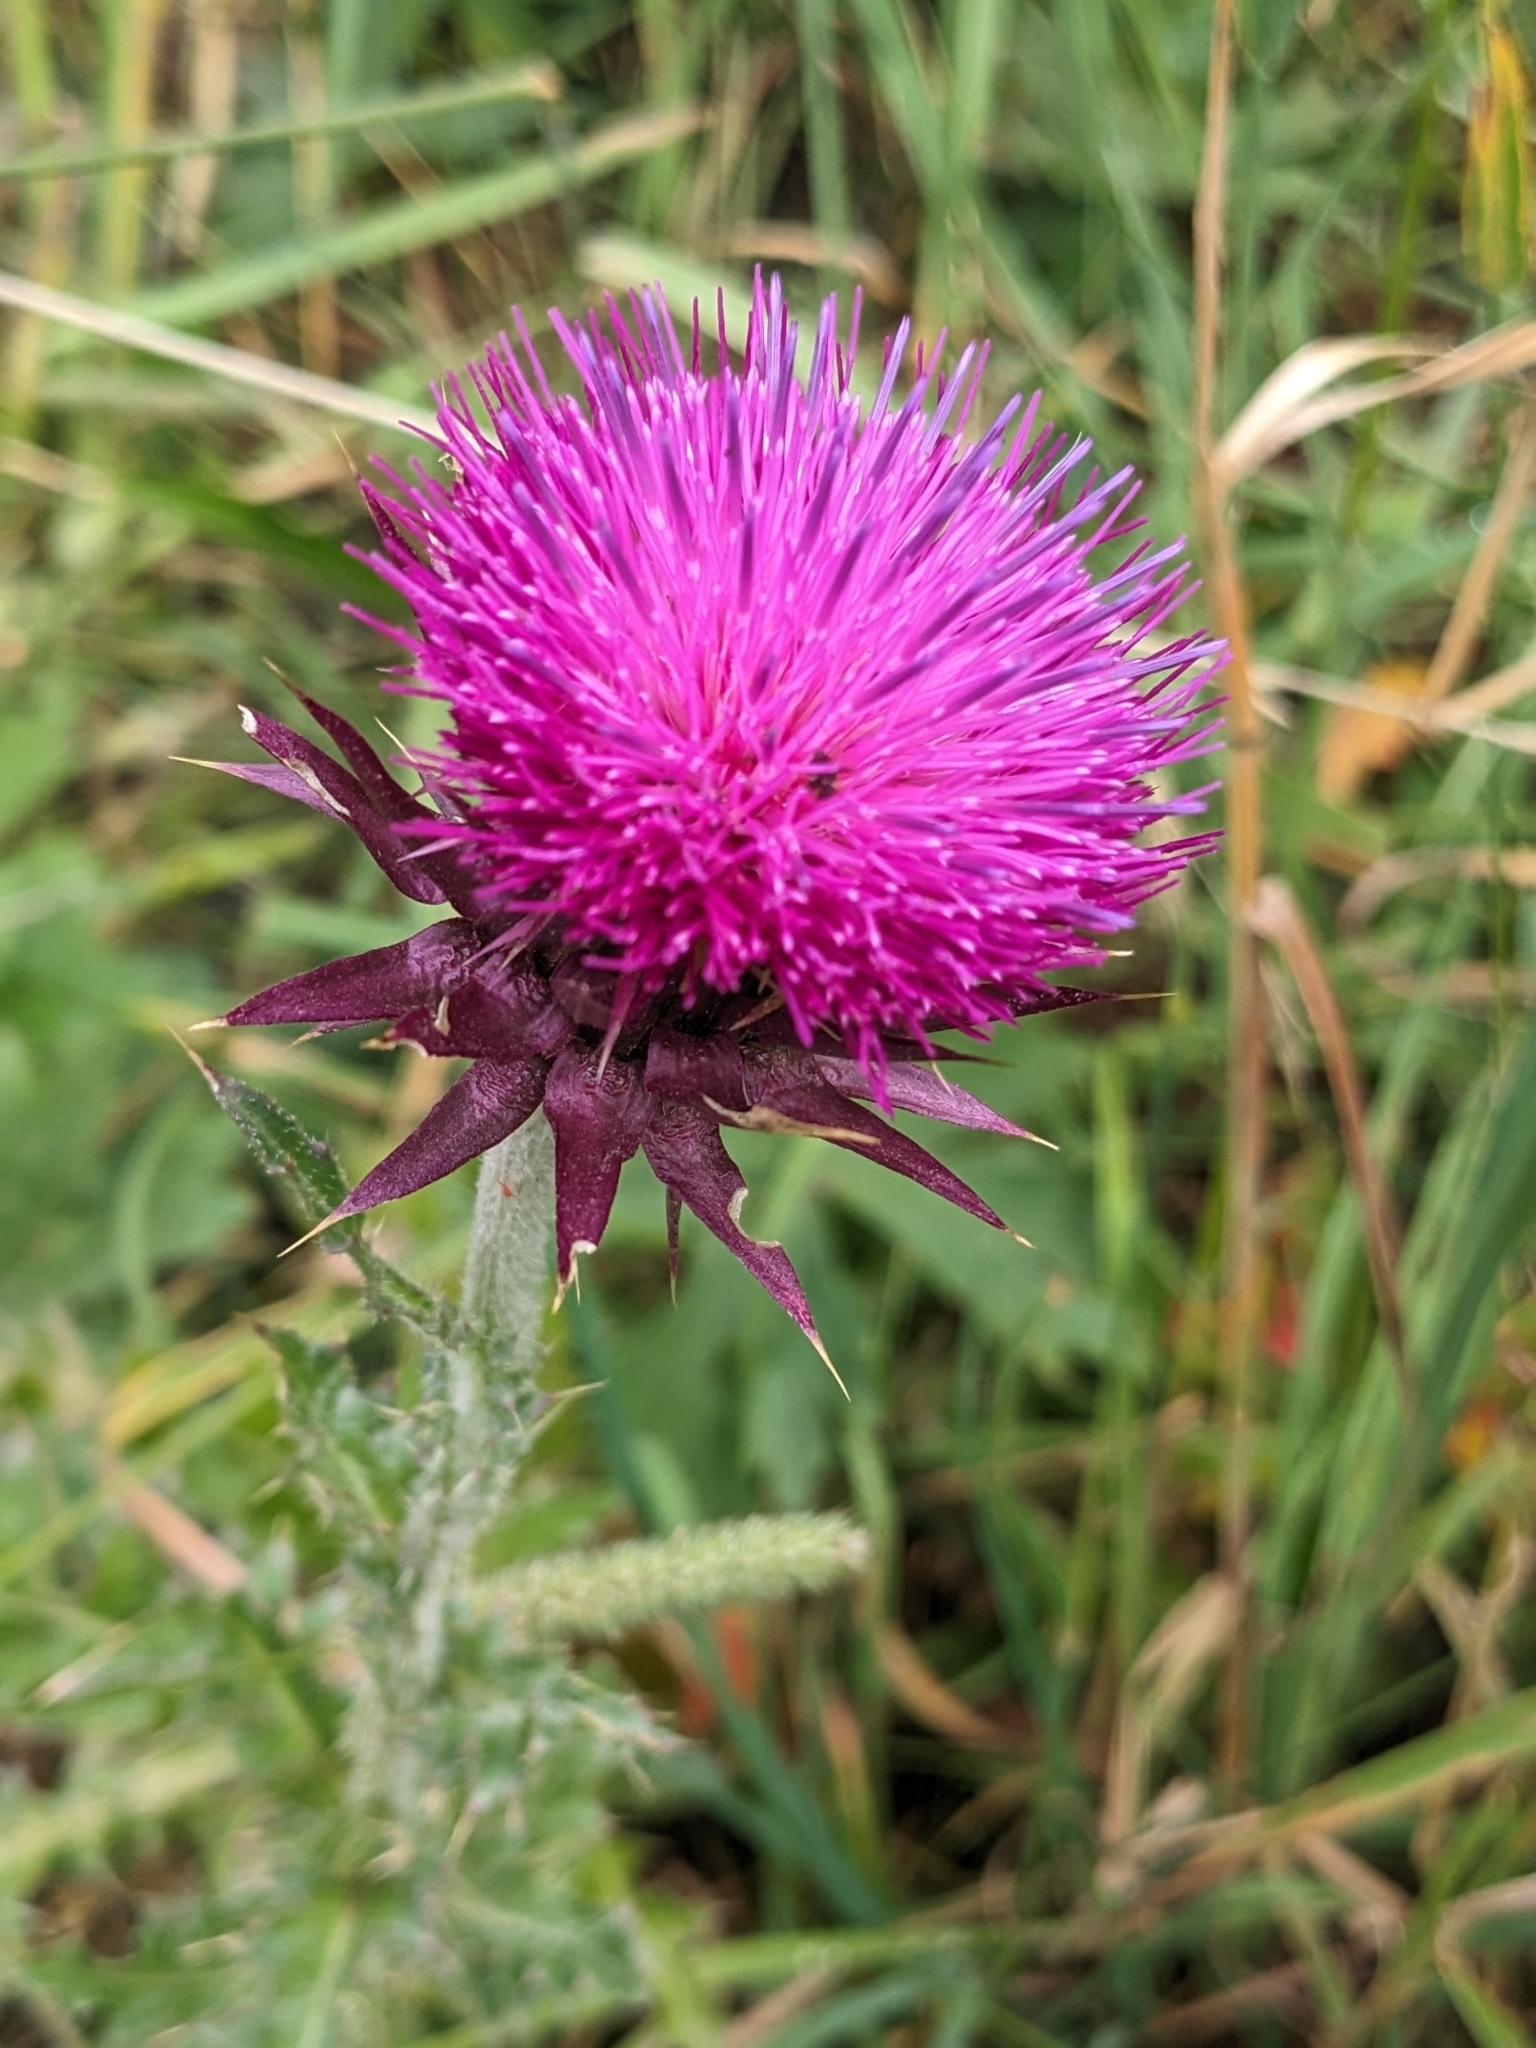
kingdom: Plantae
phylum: Tracheophyta
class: Magnoliopsida
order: Asterales
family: Asteraceae
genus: Carduus
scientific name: Carduus nutans
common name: Musk thistle
